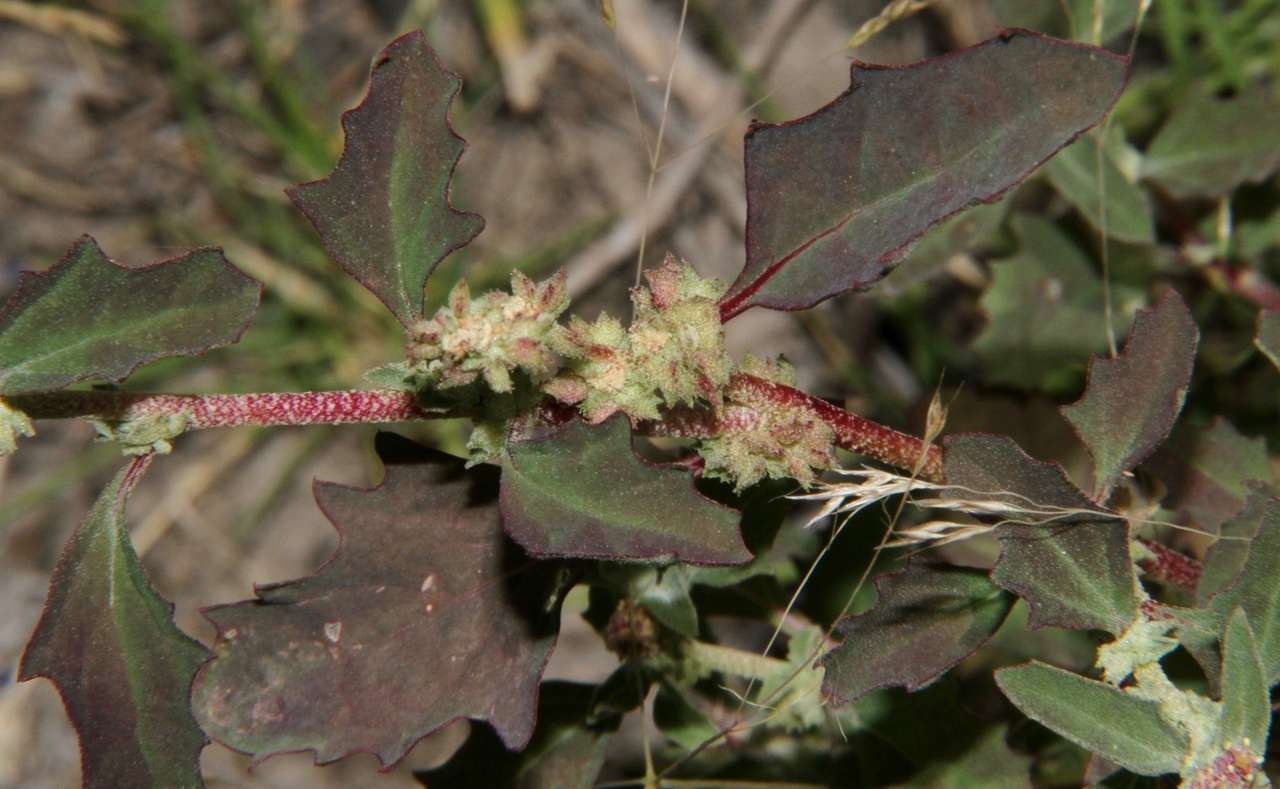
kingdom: Plantae
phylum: Tracheophyta
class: Magnoliopsida
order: Caryophyllales
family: Amaranthaceae
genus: Atriplex
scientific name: Atriplex suberecta
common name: Australian orache
